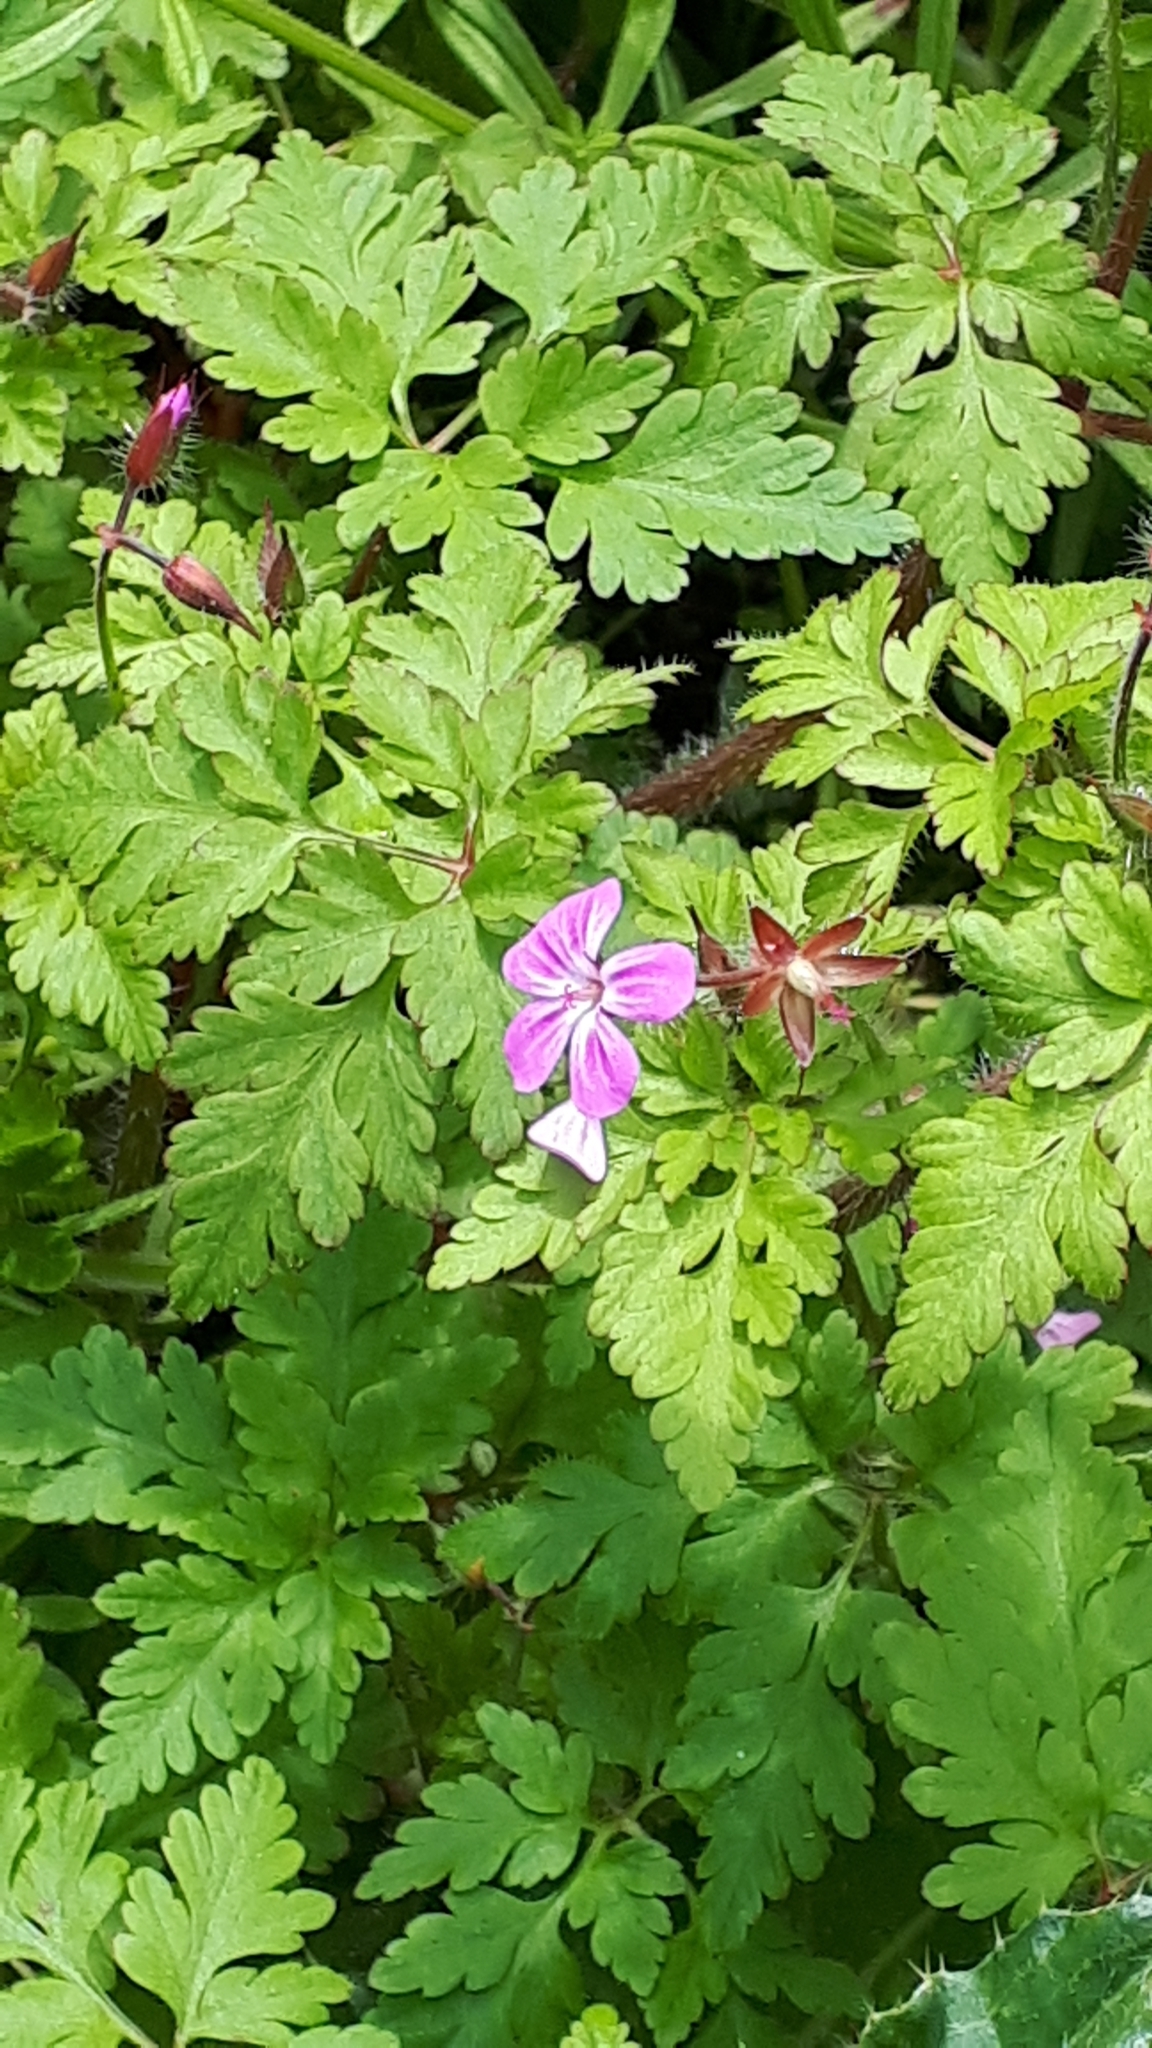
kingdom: Plantae
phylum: Tracheophyta
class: Magnoliopsida
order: Geraniales
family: Geraniaceae
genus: Geranium
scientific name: Geranium robertianum
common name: Herb-robert
